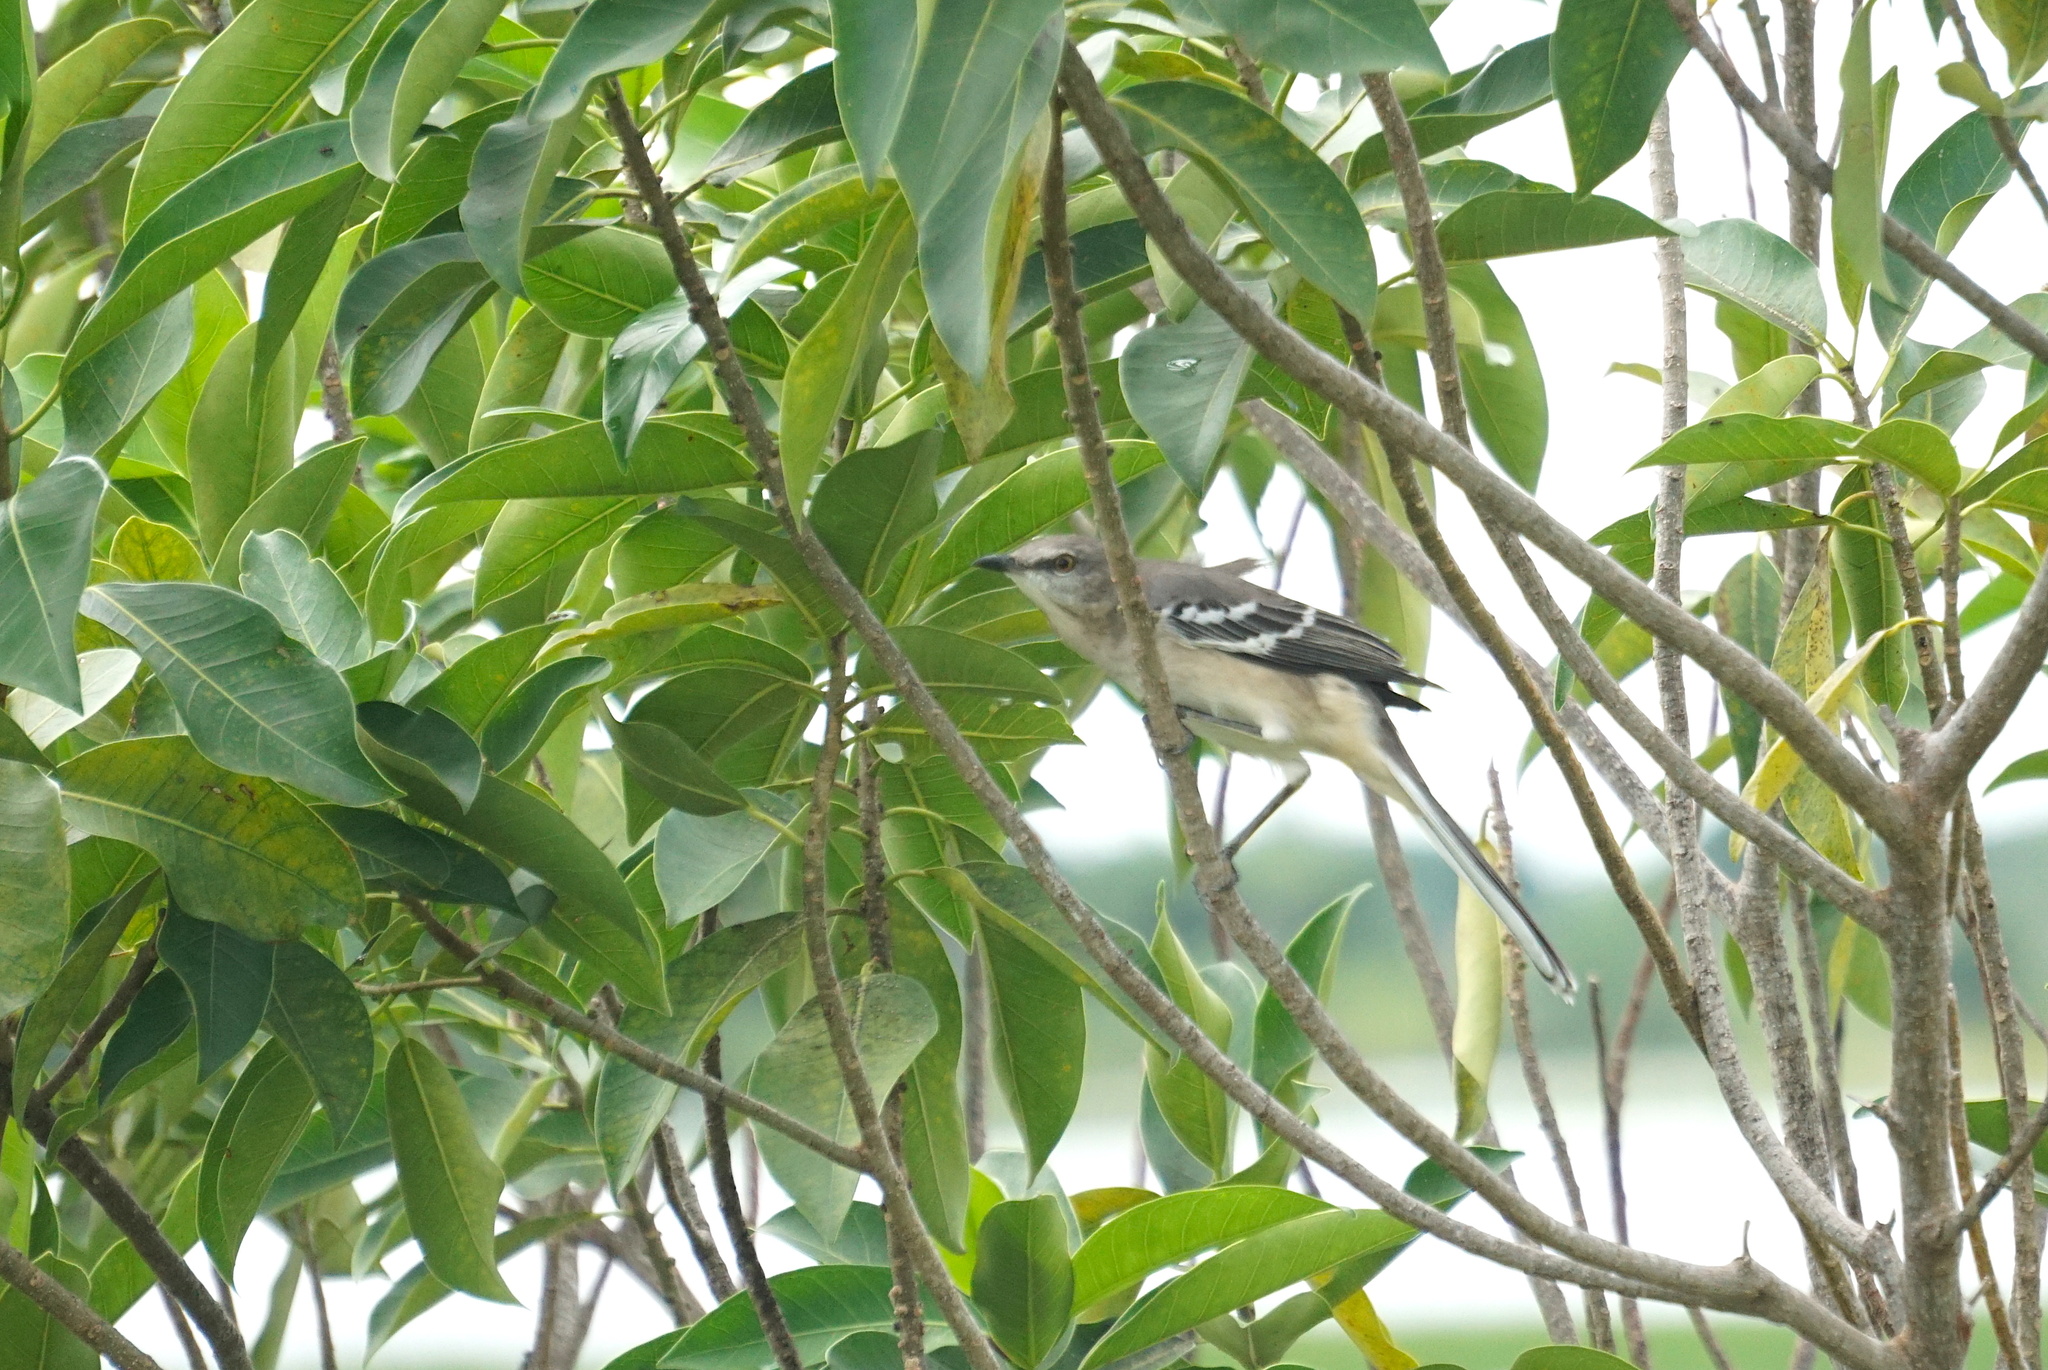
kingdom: Animalia
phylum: Chordata
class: Aves
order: Passeriformes
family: Mimidae
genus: Mimus
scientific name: Mimus polyglottos
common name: Northern mockingbird
